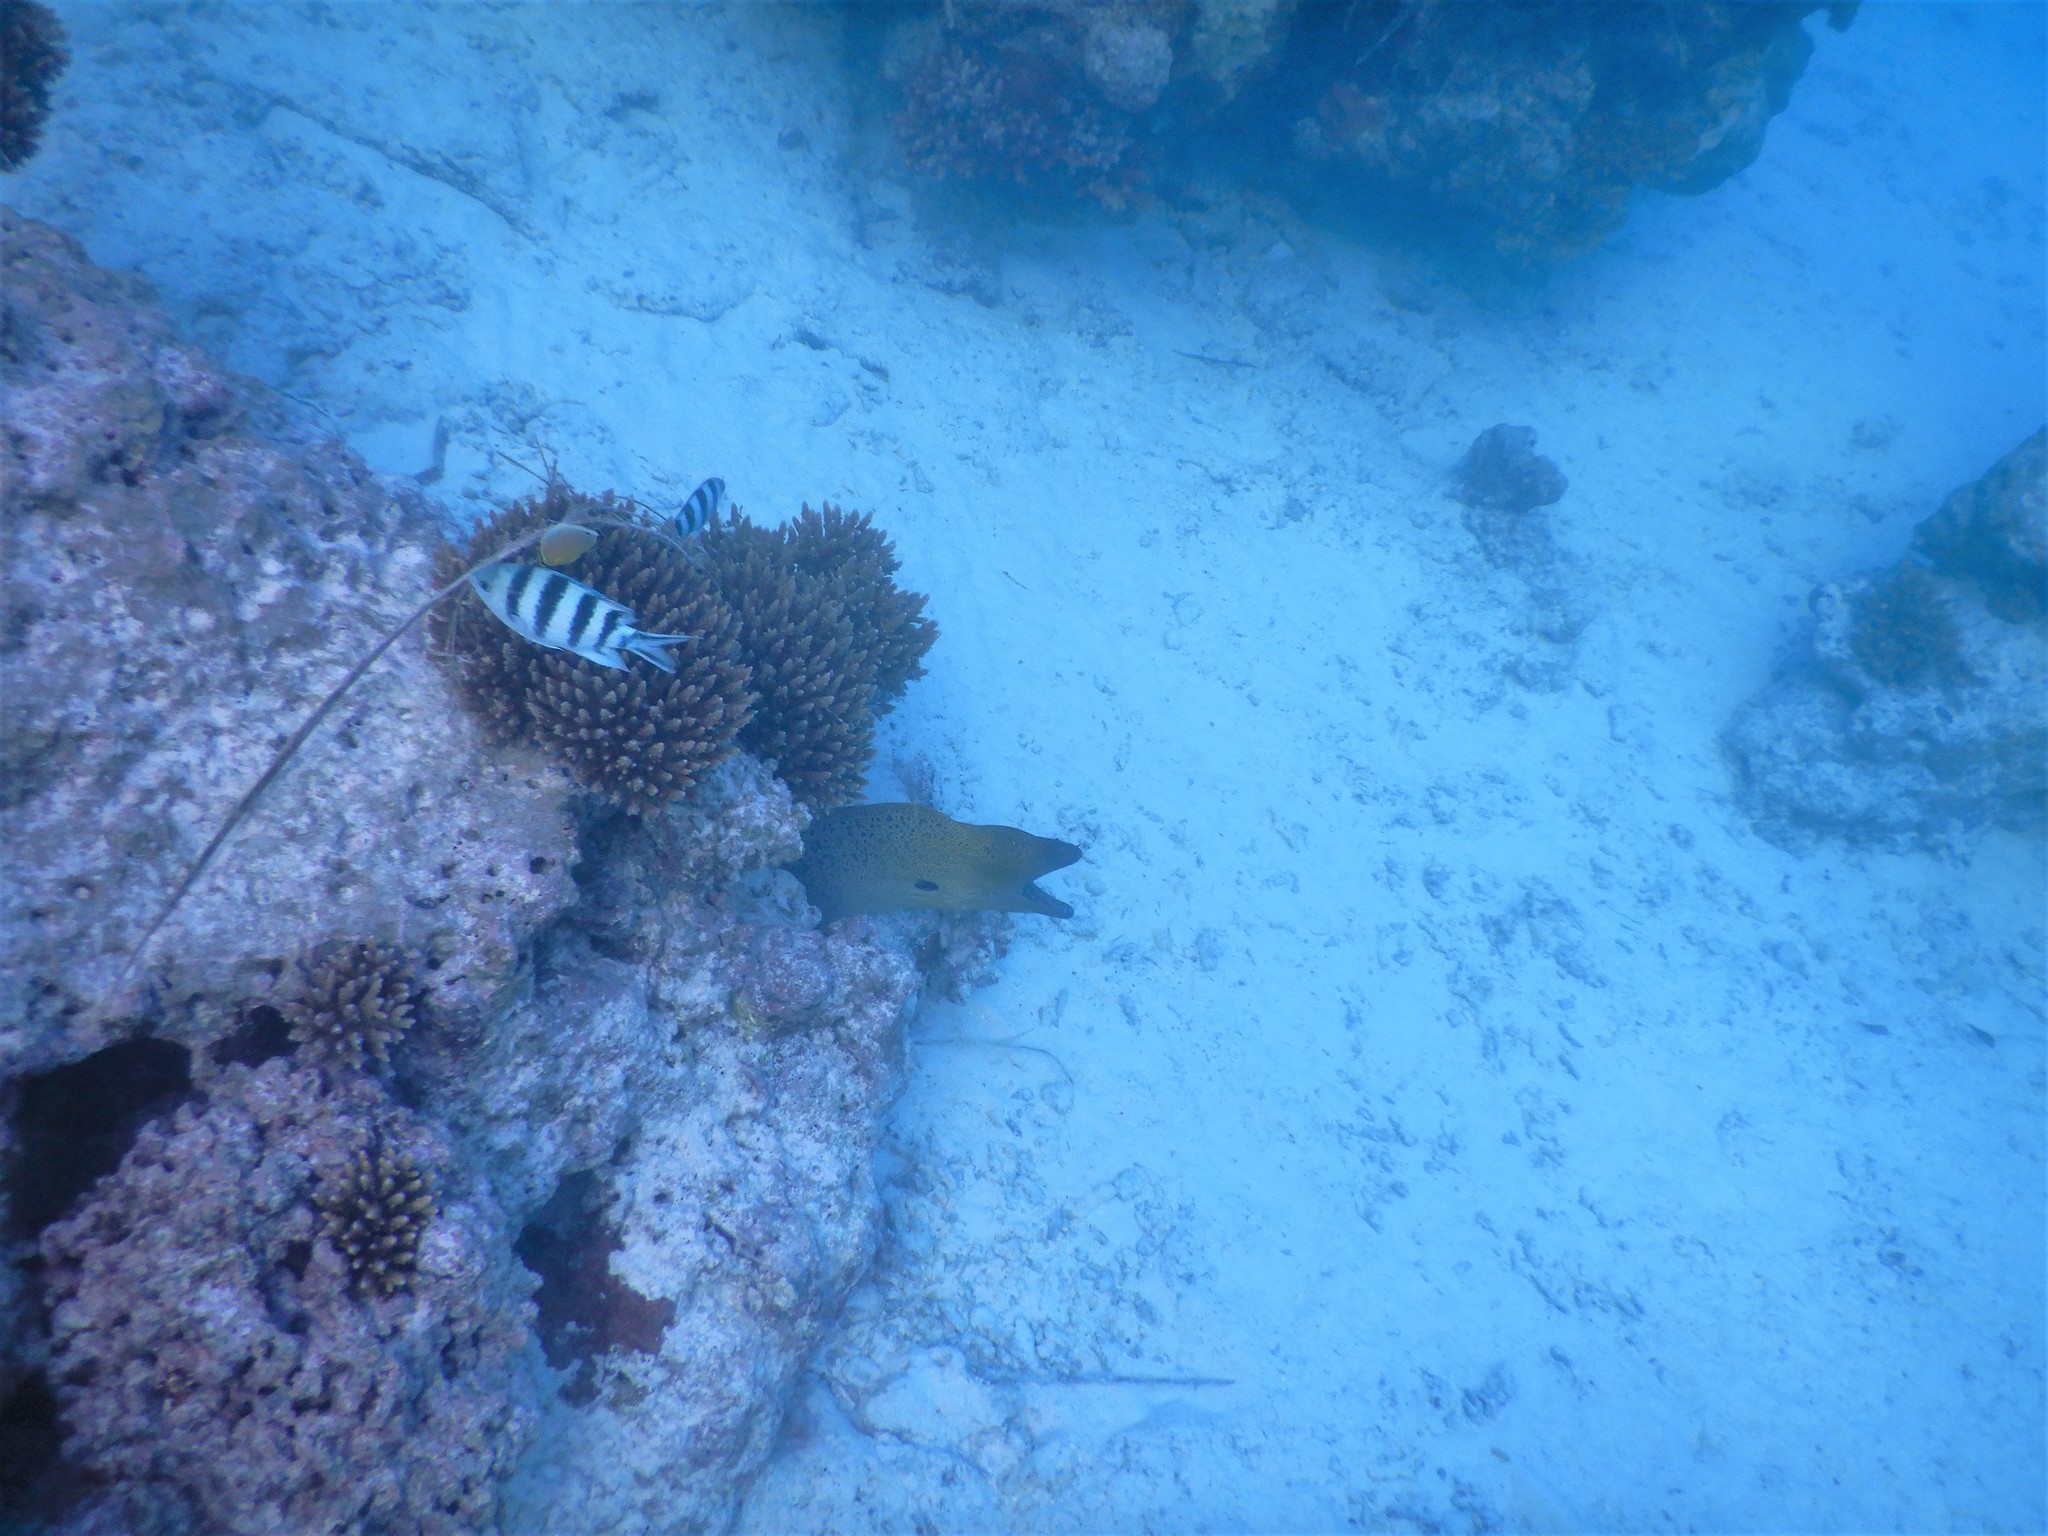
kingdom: Animalia
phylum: Chordata
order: Anguilliformes
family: Muraenidae
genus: Gymnothorax
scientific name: Gymnothorax javanicus
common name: Giant moray
